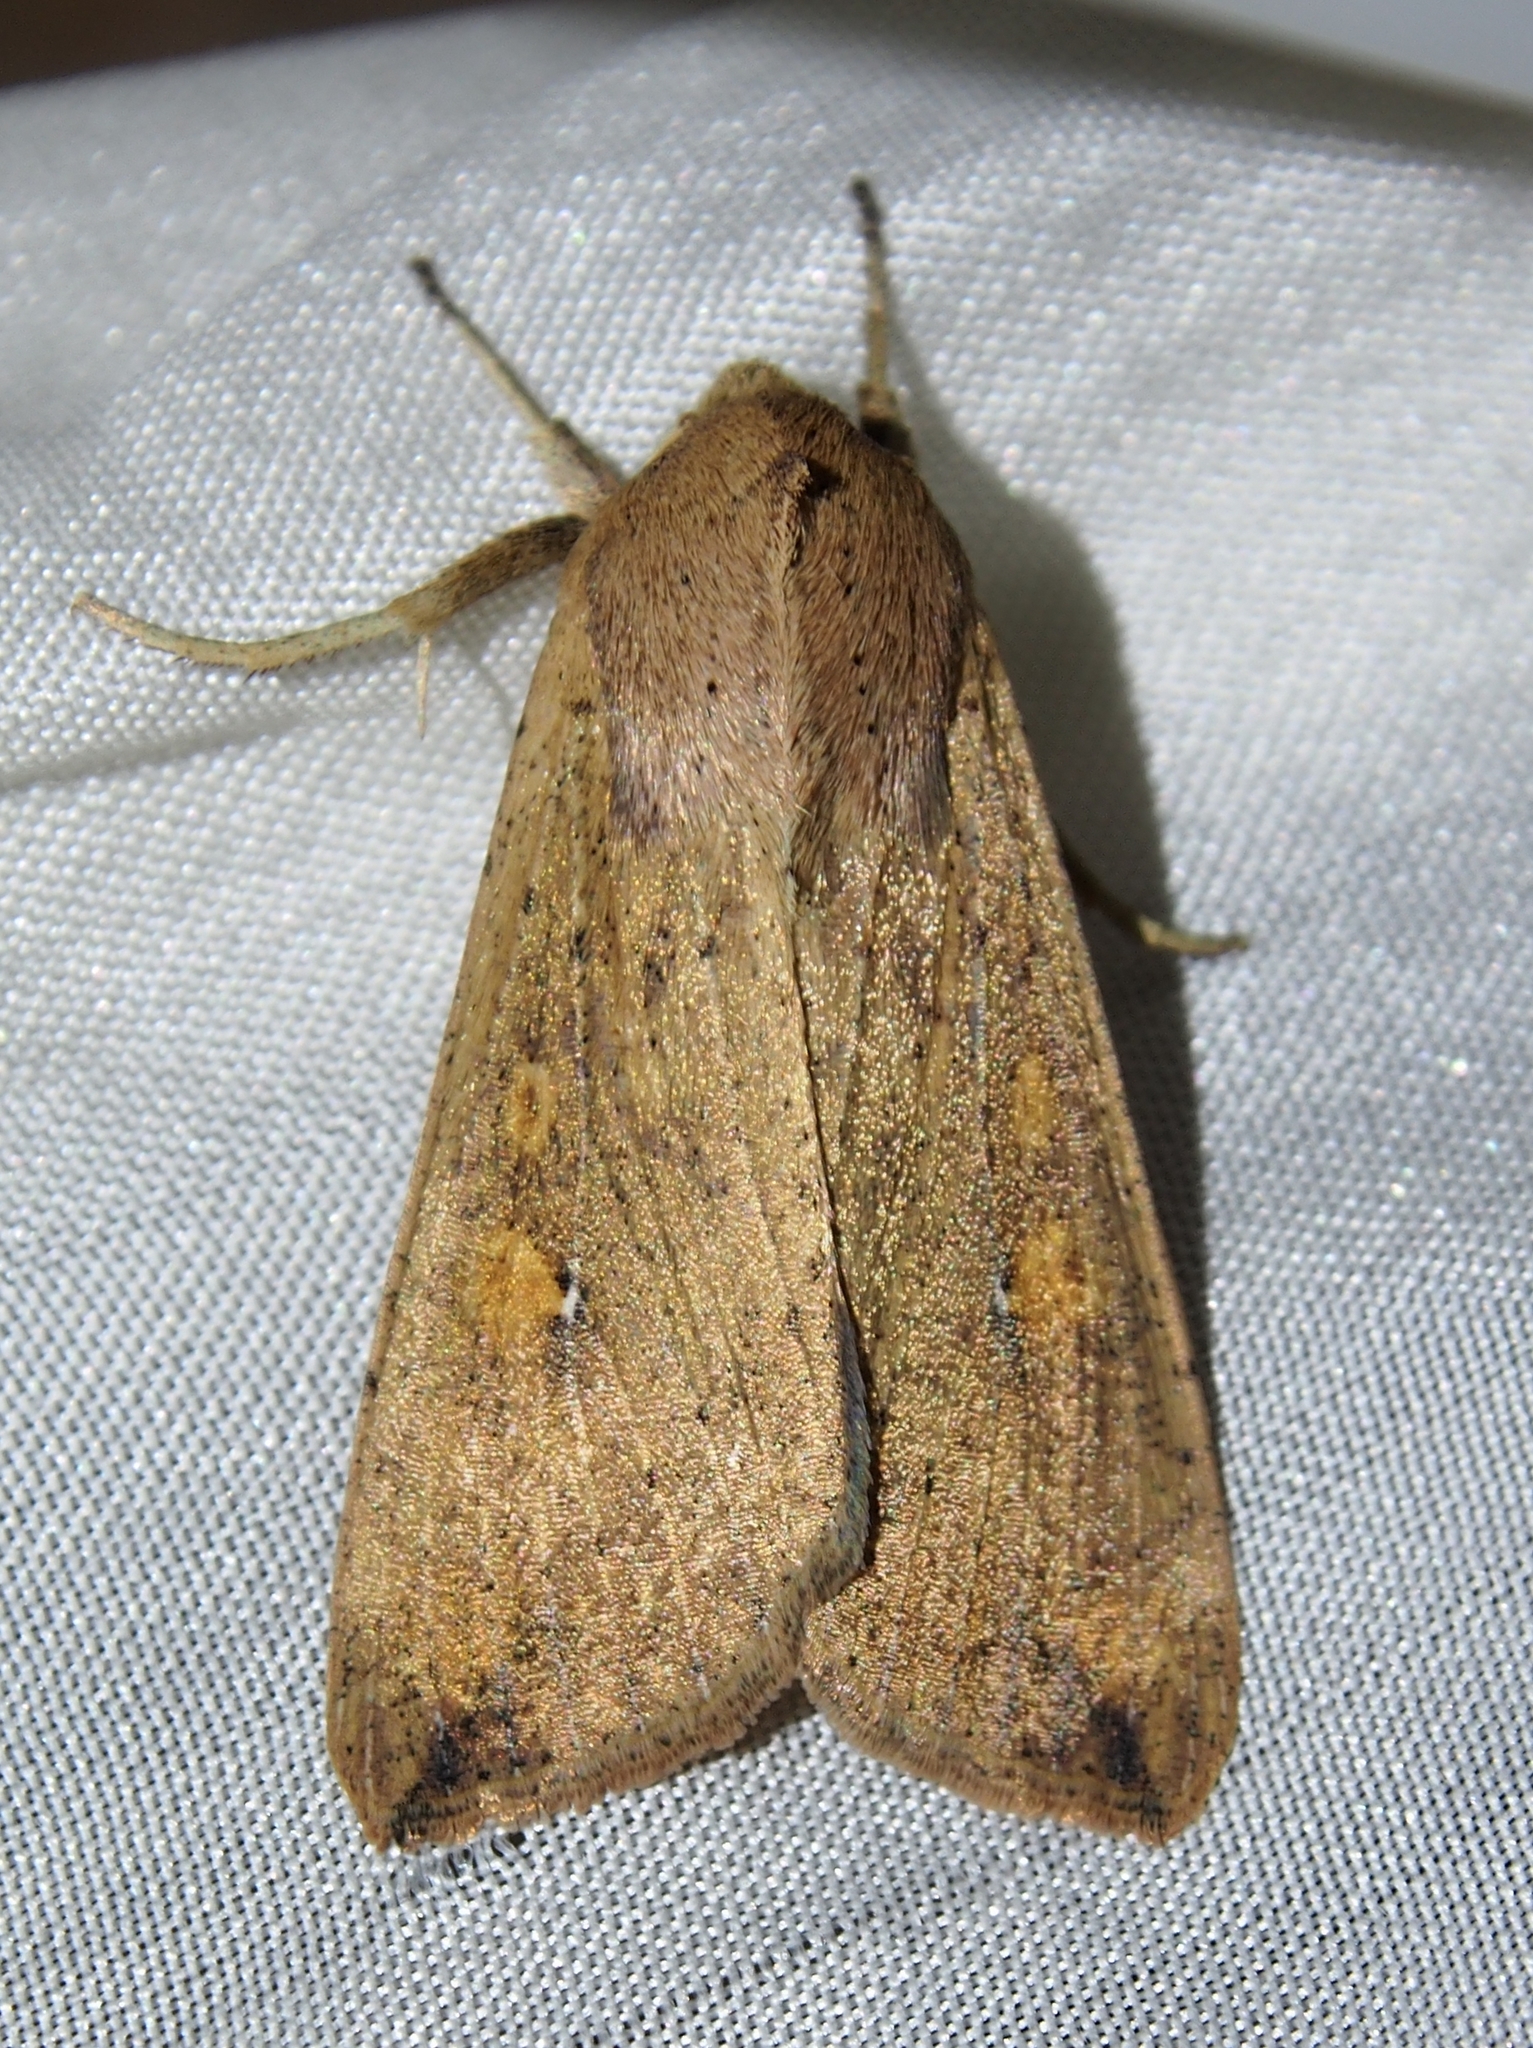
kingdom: Animalia
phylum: Arthropoda
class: Insecta
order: Lepidoptera
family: Noctuidae
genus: Mythimna
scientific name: Mythimna sequax
